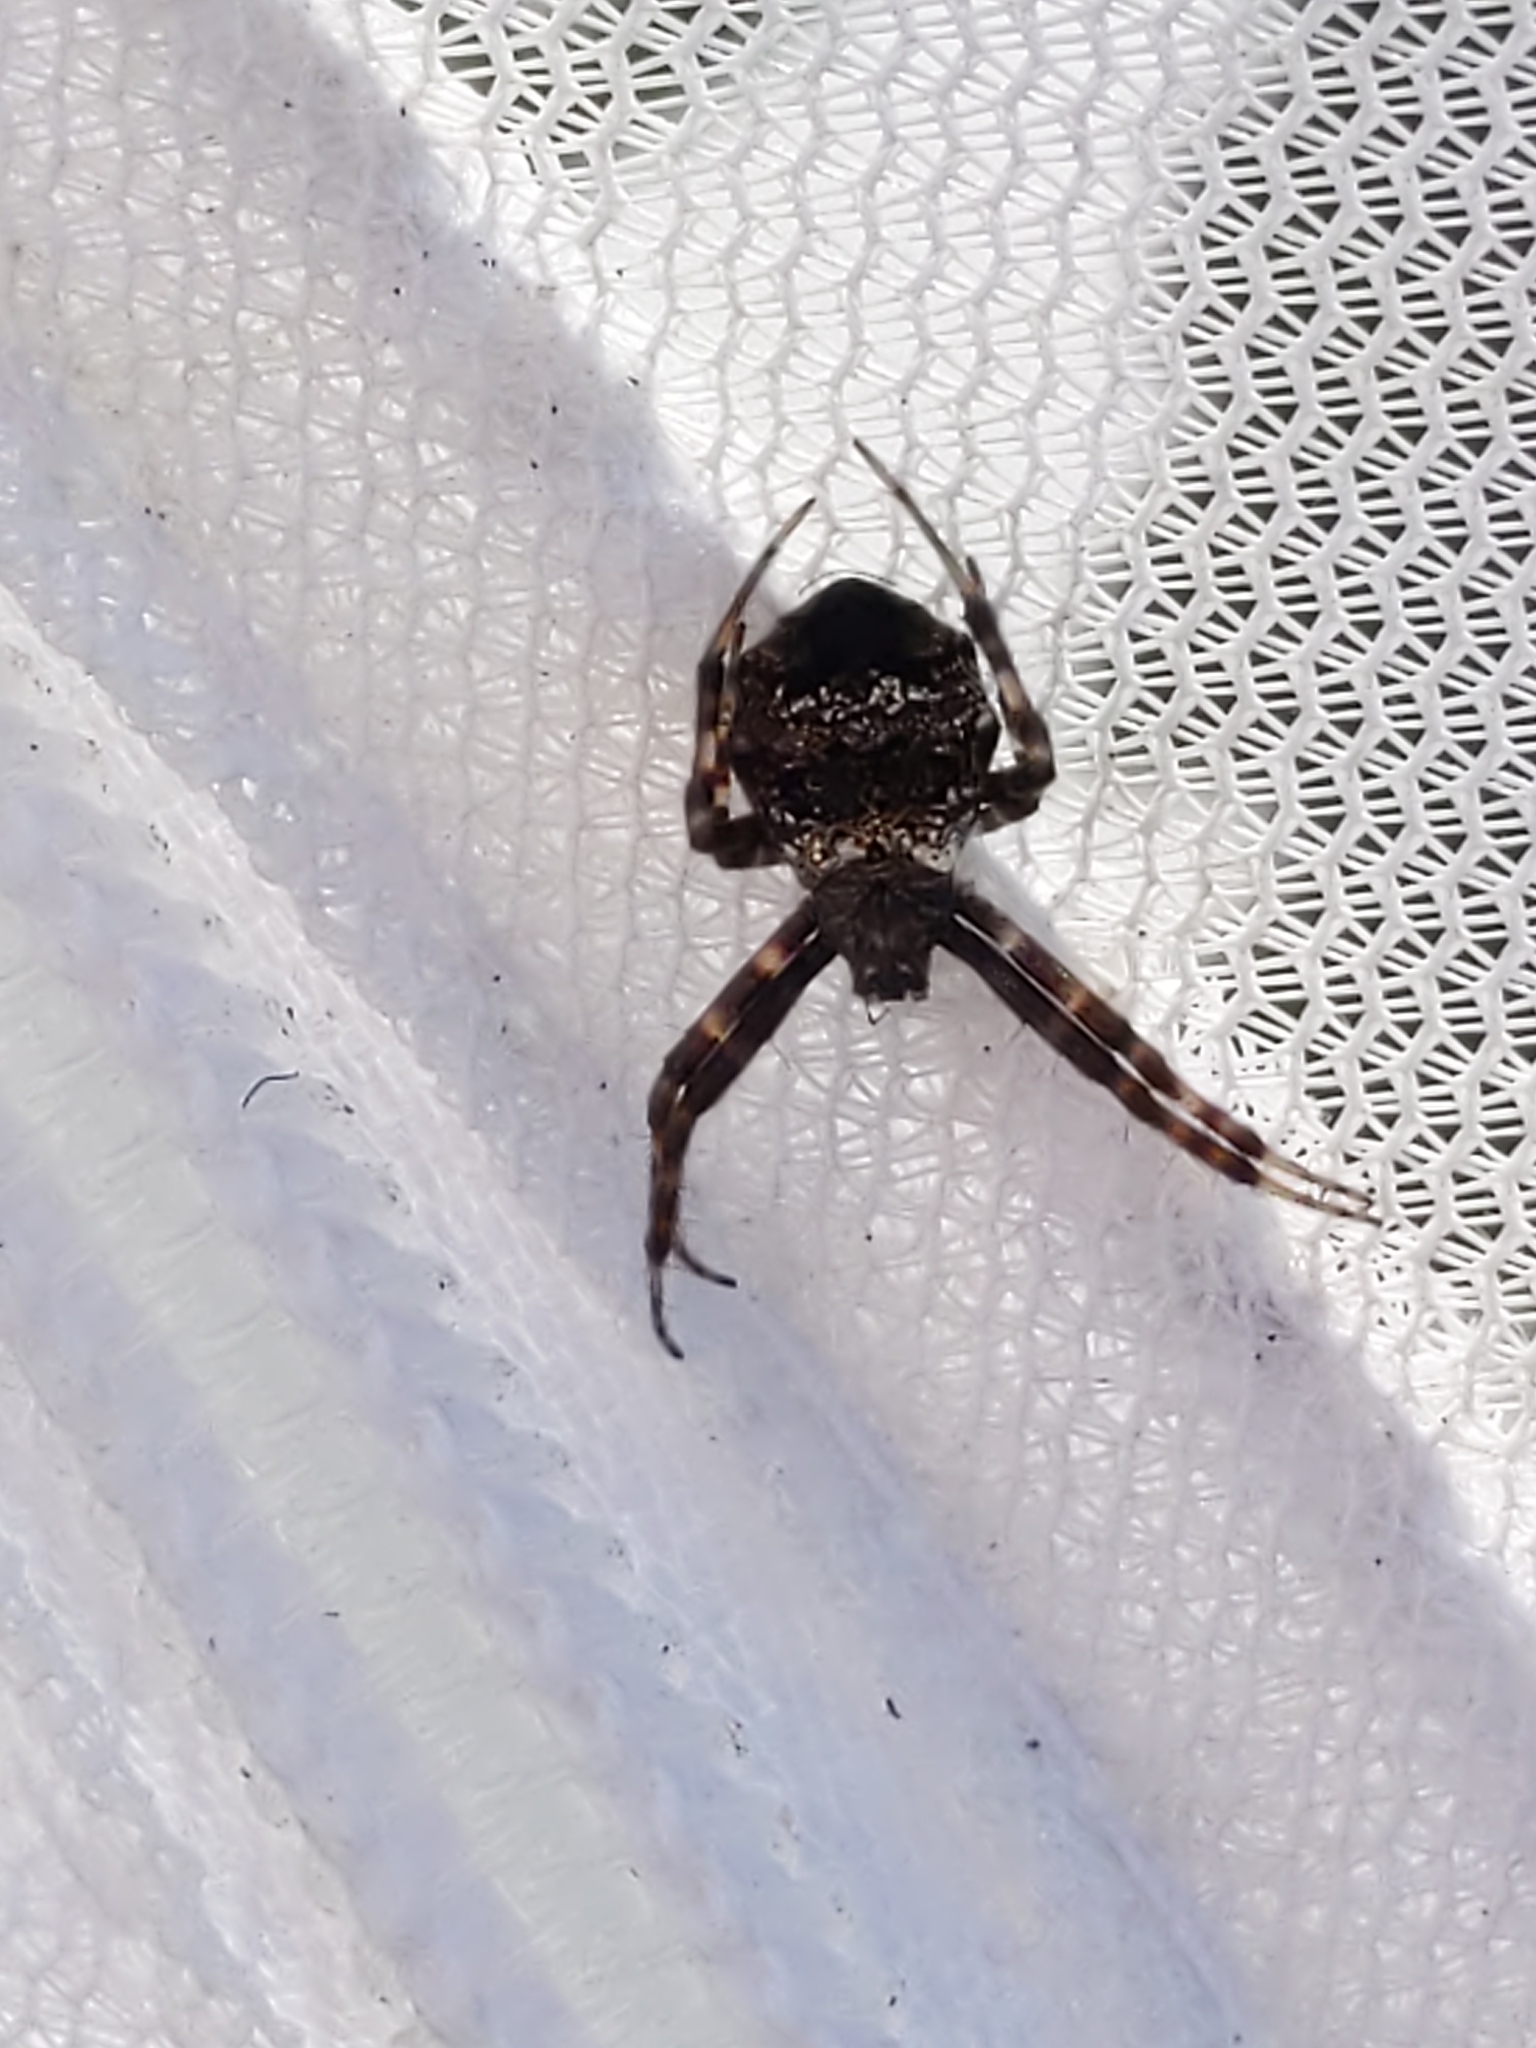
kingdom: Animalia
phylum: Arthropoda
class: Arachnida
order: Araneae
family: Araneidae
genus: Gea
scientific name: Gea heptagon
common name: Orb weavers
